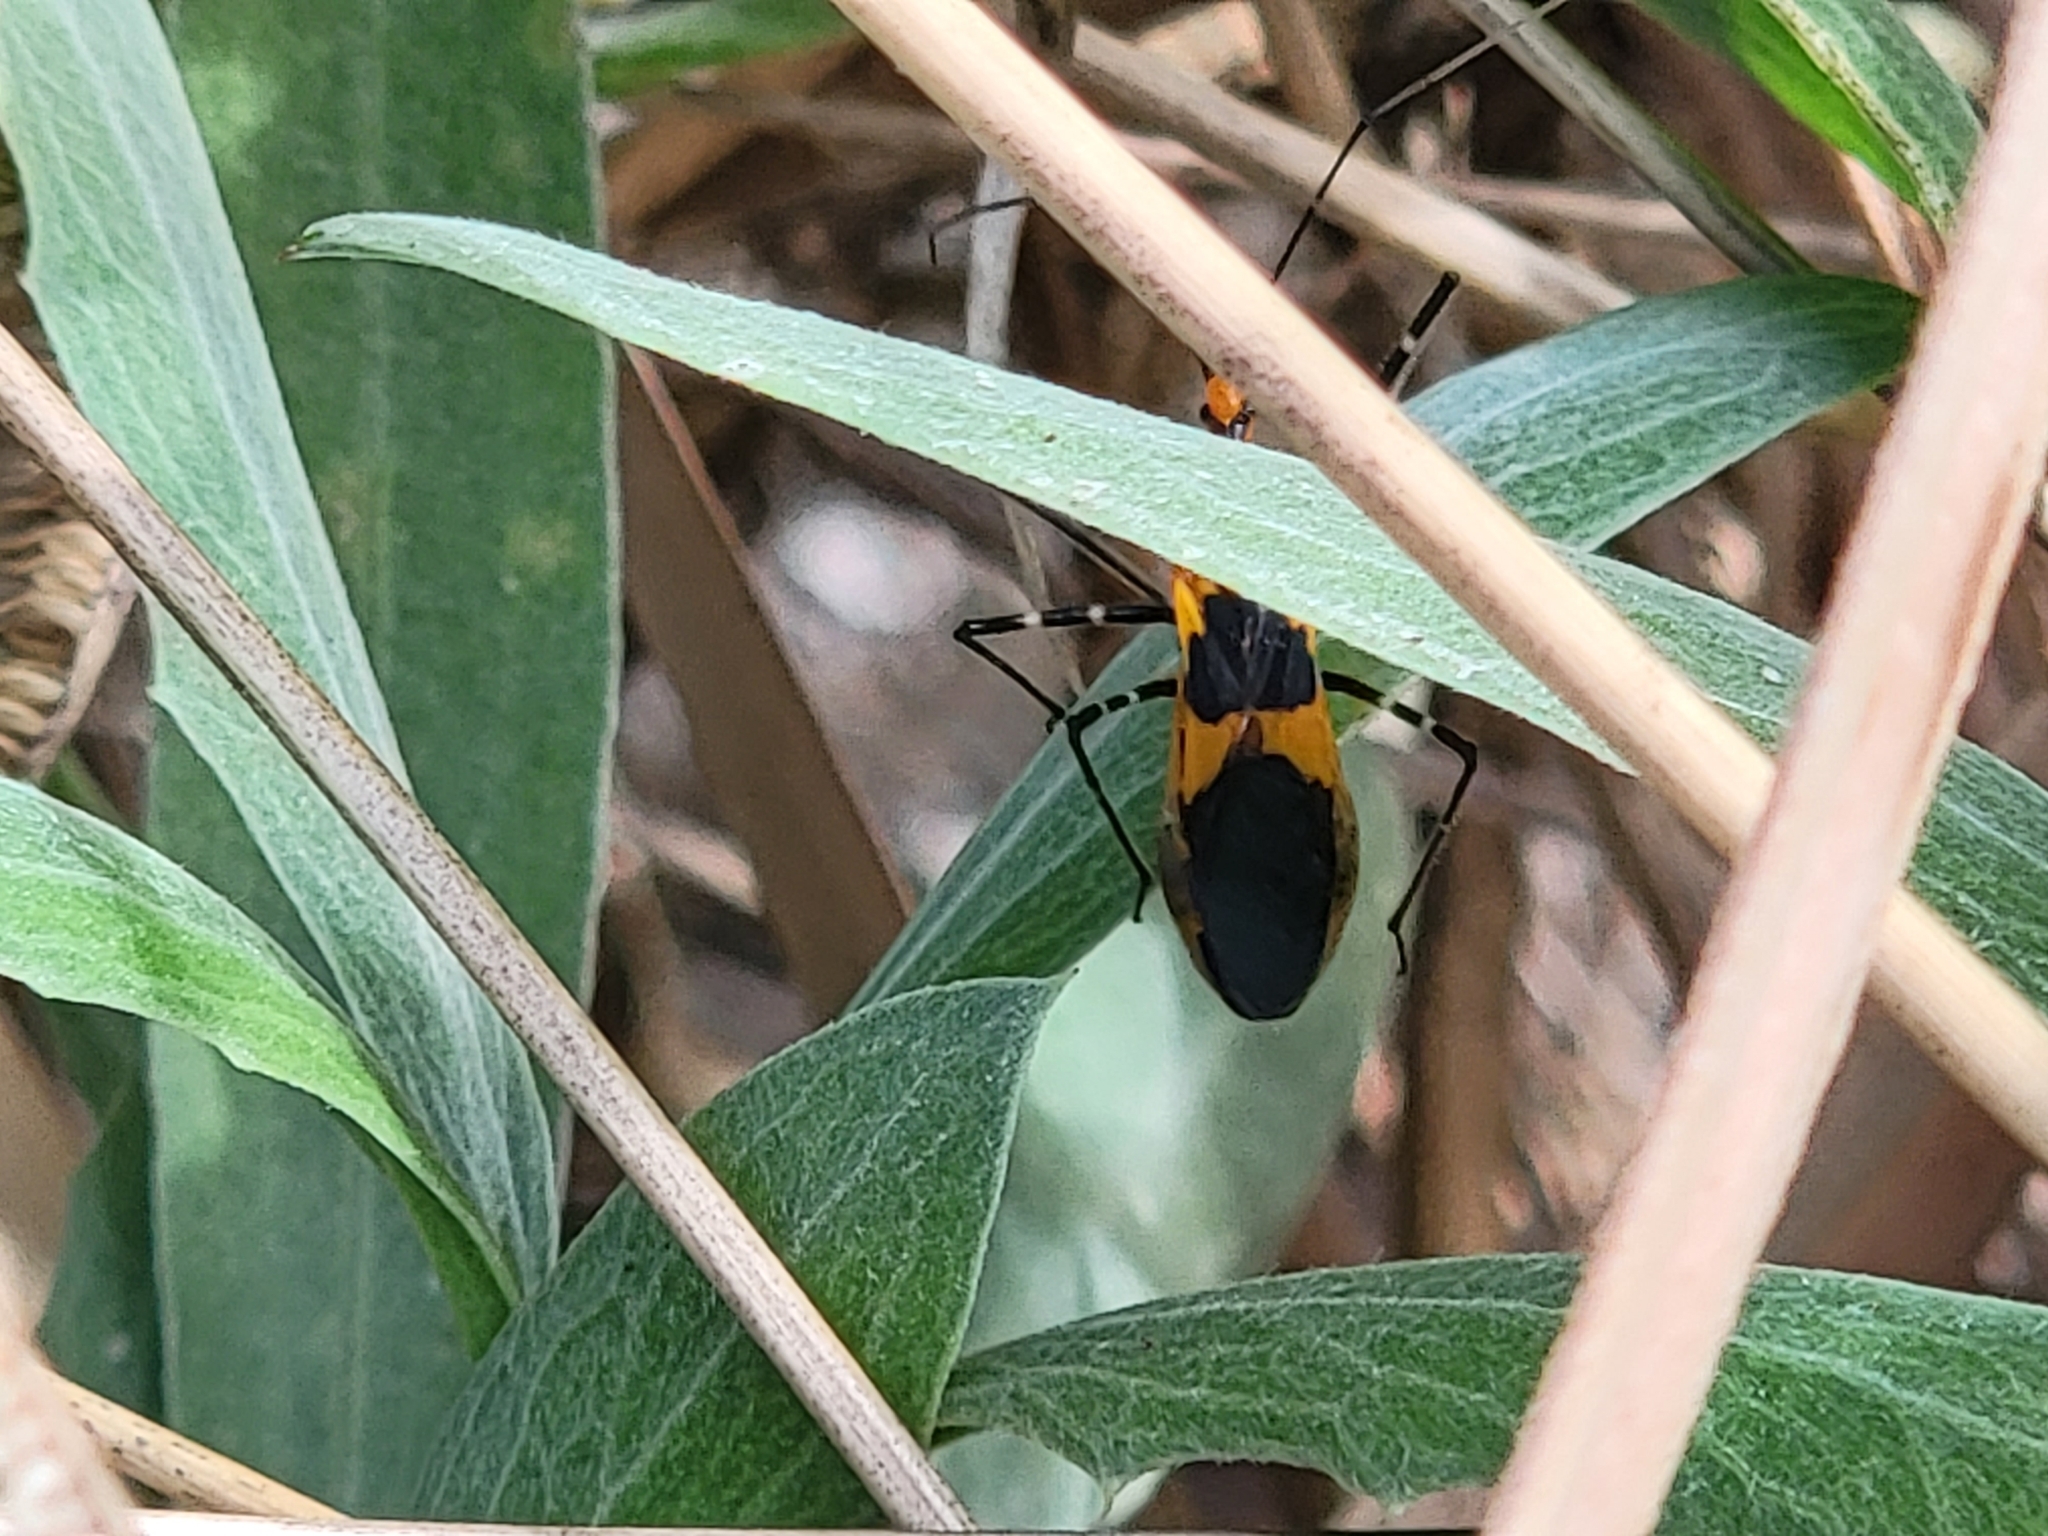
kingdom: Animalia
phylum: Arthropoda
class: Insecta
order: Hemiptera
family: Reduviidae
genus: Zelus
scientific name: Zelus longipes
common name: Milkweed assassin bug
